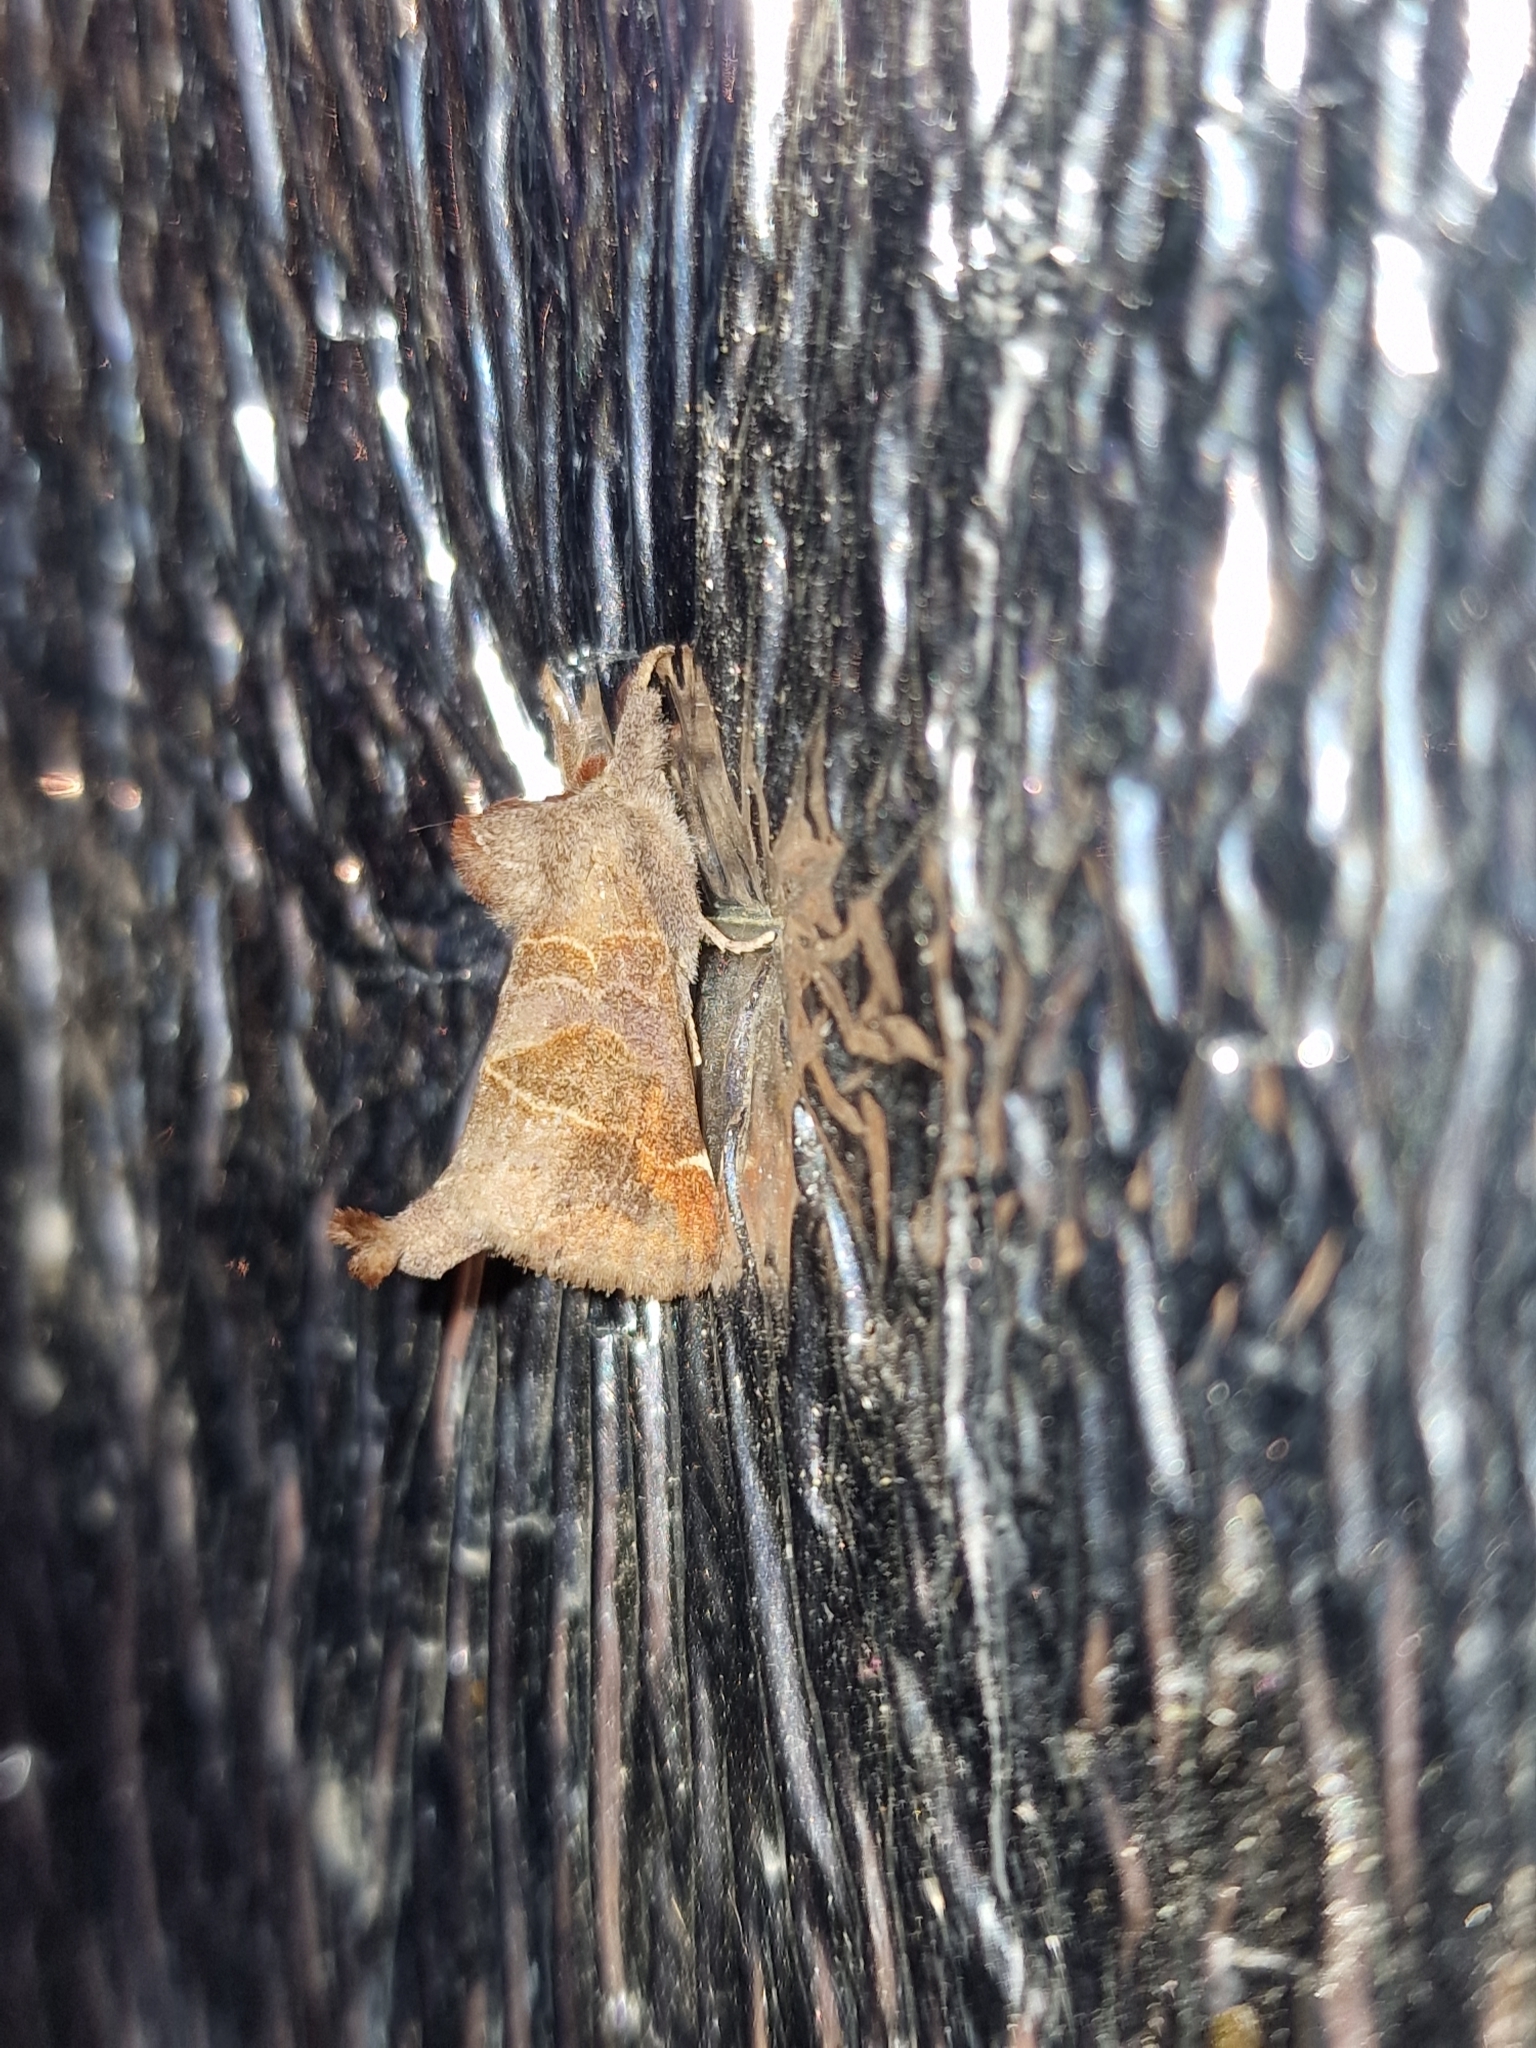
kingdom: Animalia
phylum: Arthropoda
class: Insecta
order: Lepidoptera
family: Notodontidae
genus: Clostera
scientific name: Clostera pigra
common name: Small chocolate-tip
